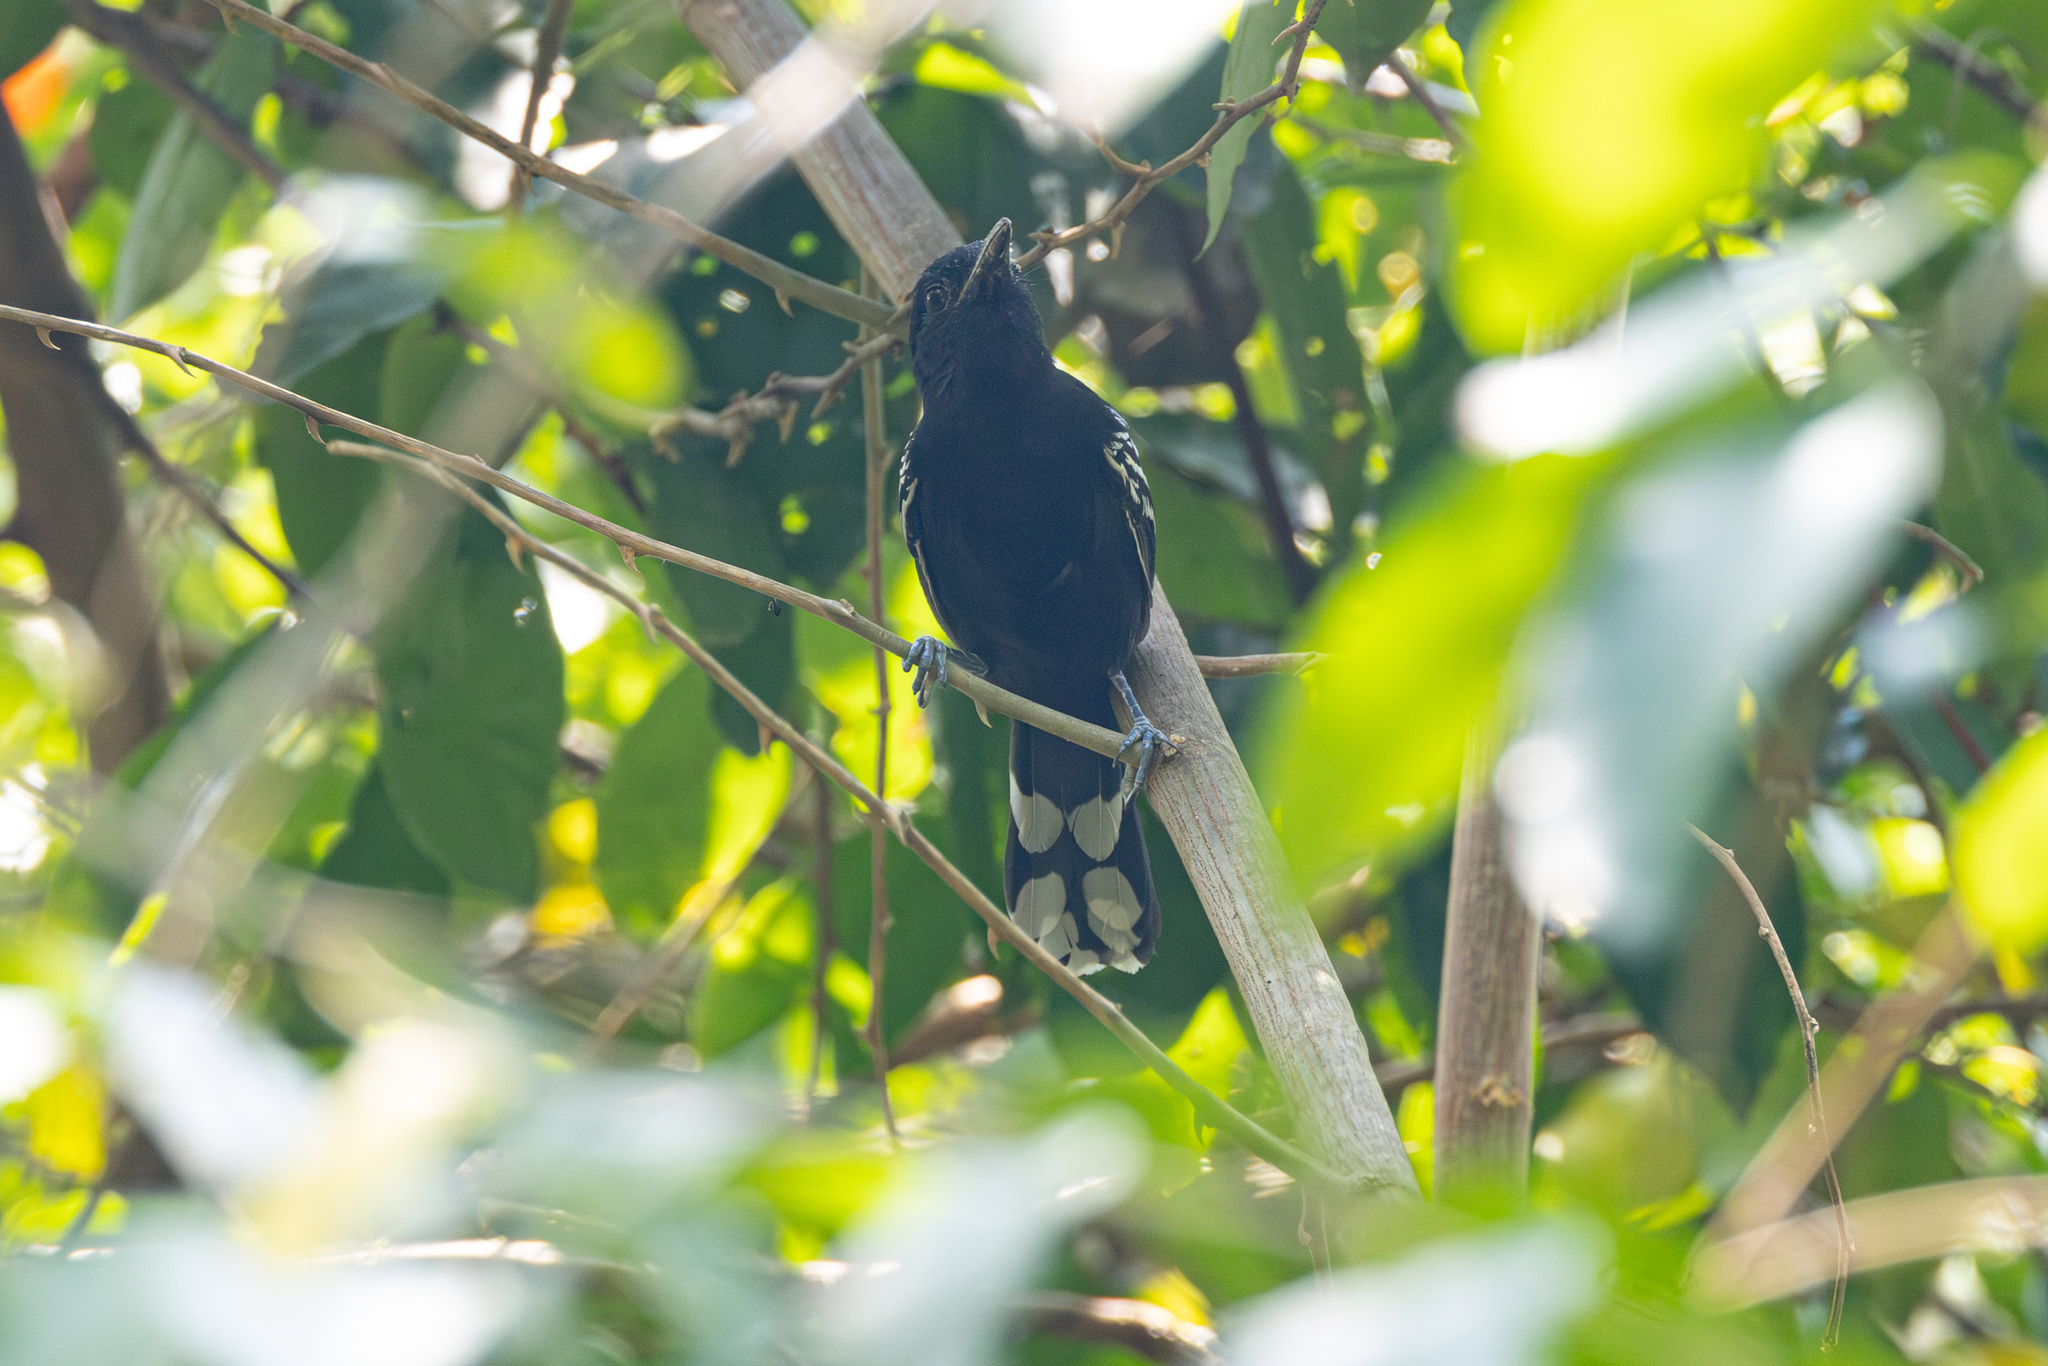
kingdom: Animalia
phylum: Chordata
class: Aves
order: Passeriformes
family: Thamnophilidae
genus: Cercomacra
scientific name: Cercomacra nigricans
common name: Jet antbird
